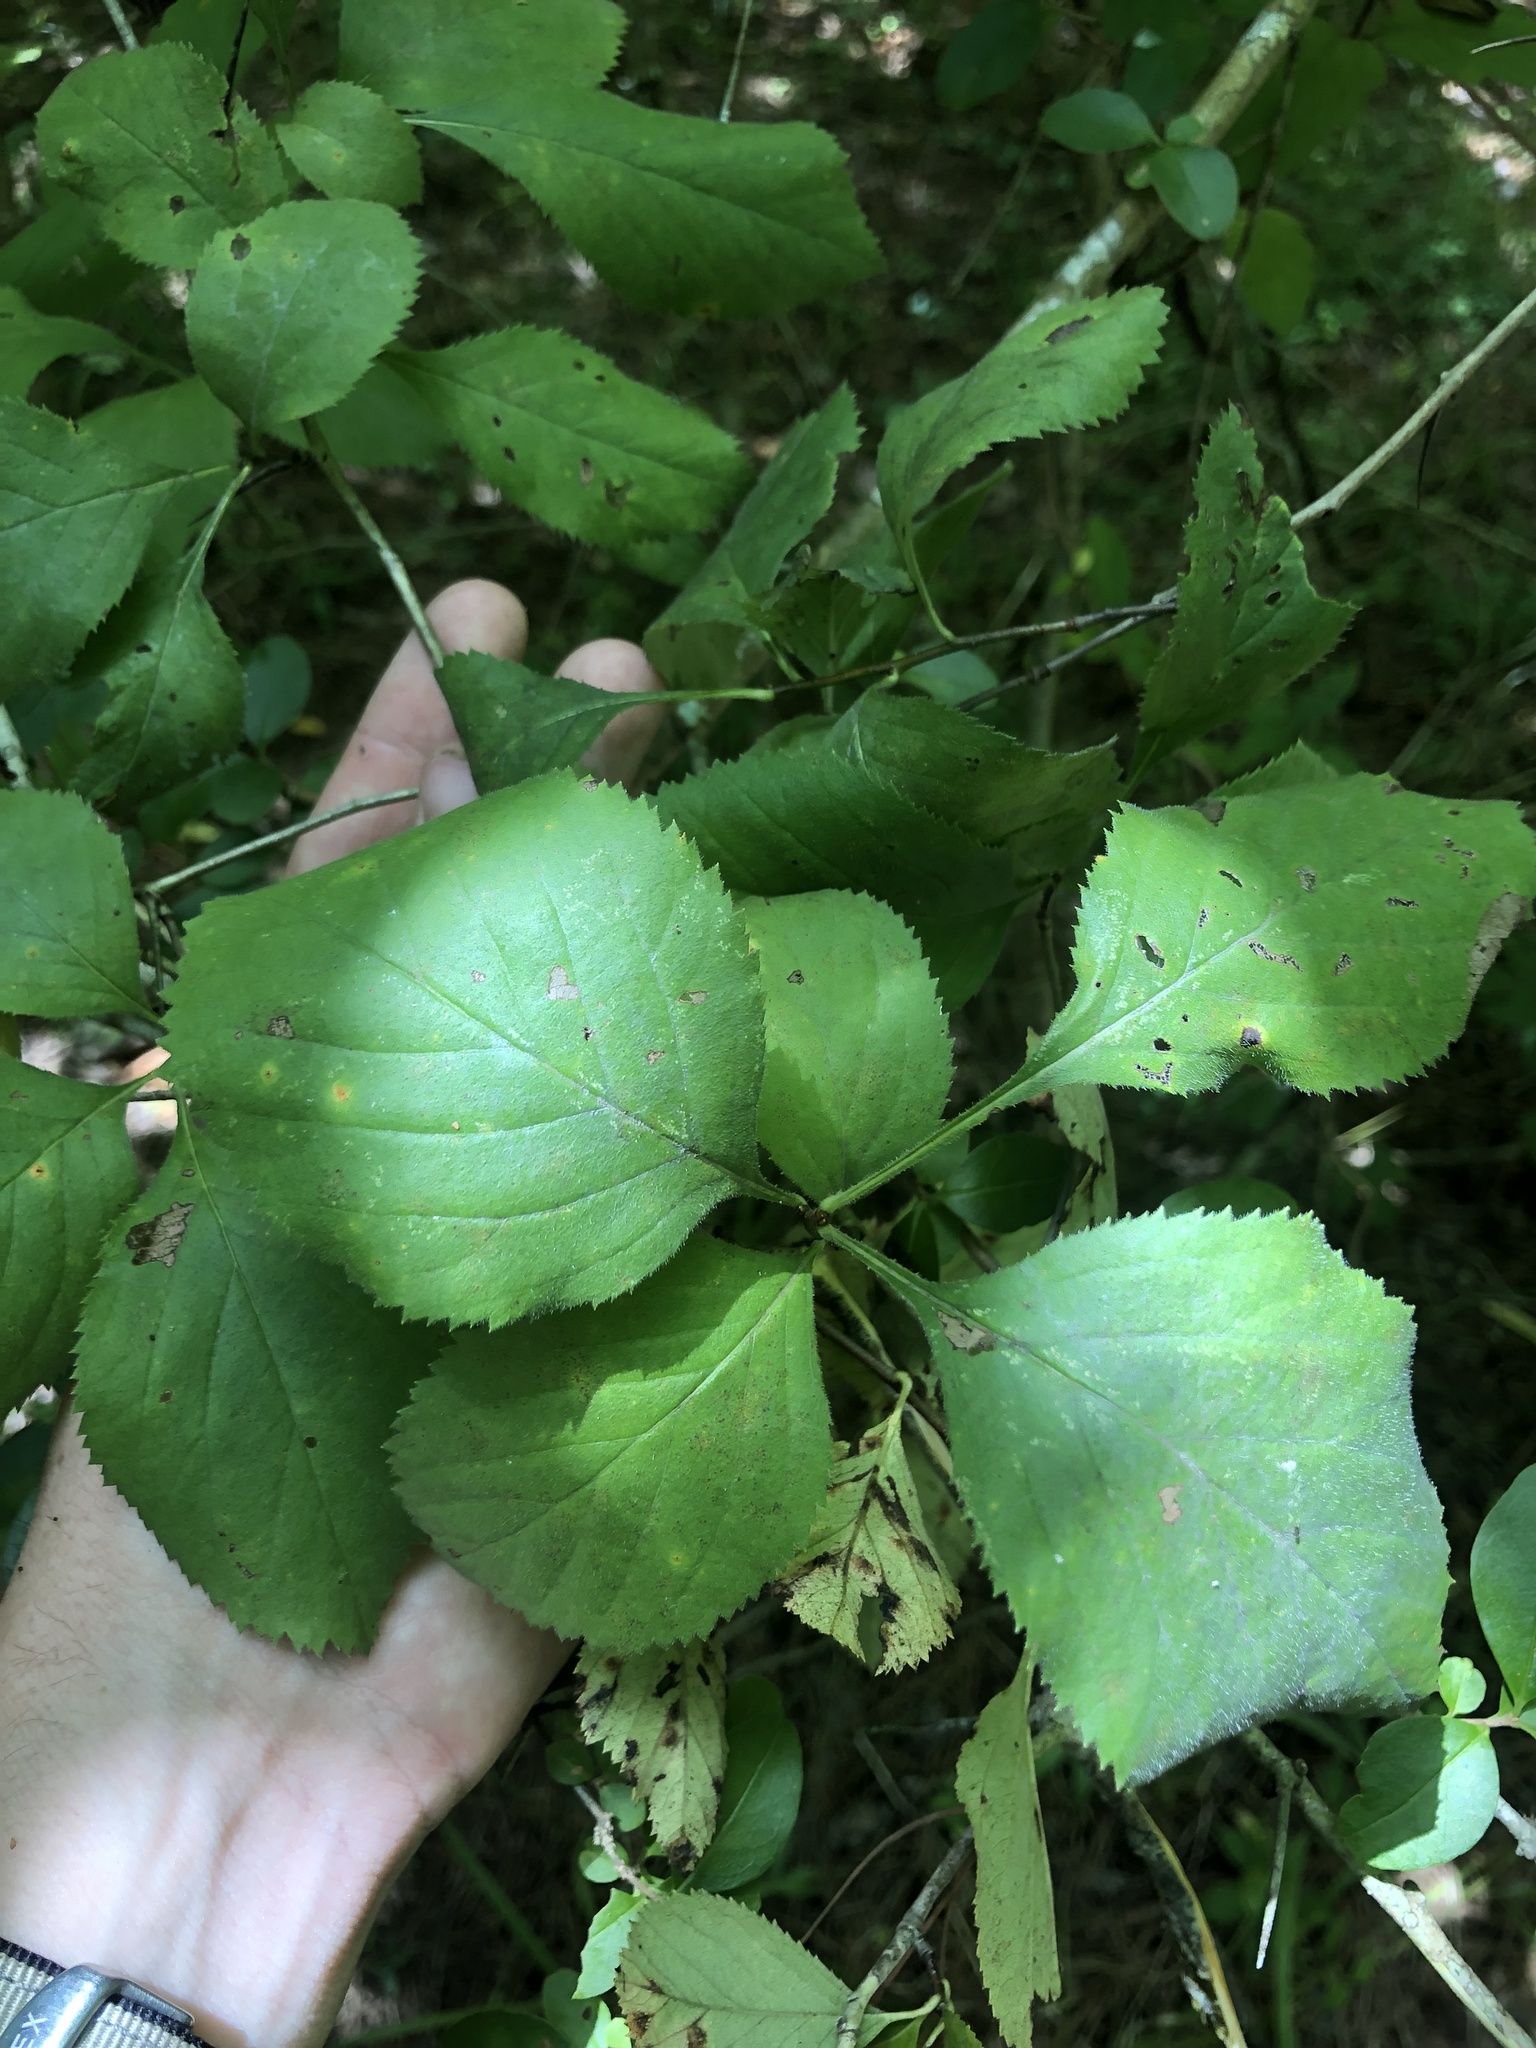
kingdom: Plantae
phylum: Tracheophyta
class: Magnoliopsida
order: Rosales
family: Rosaceae
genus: Crataegus
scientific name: Crataegus ashei
